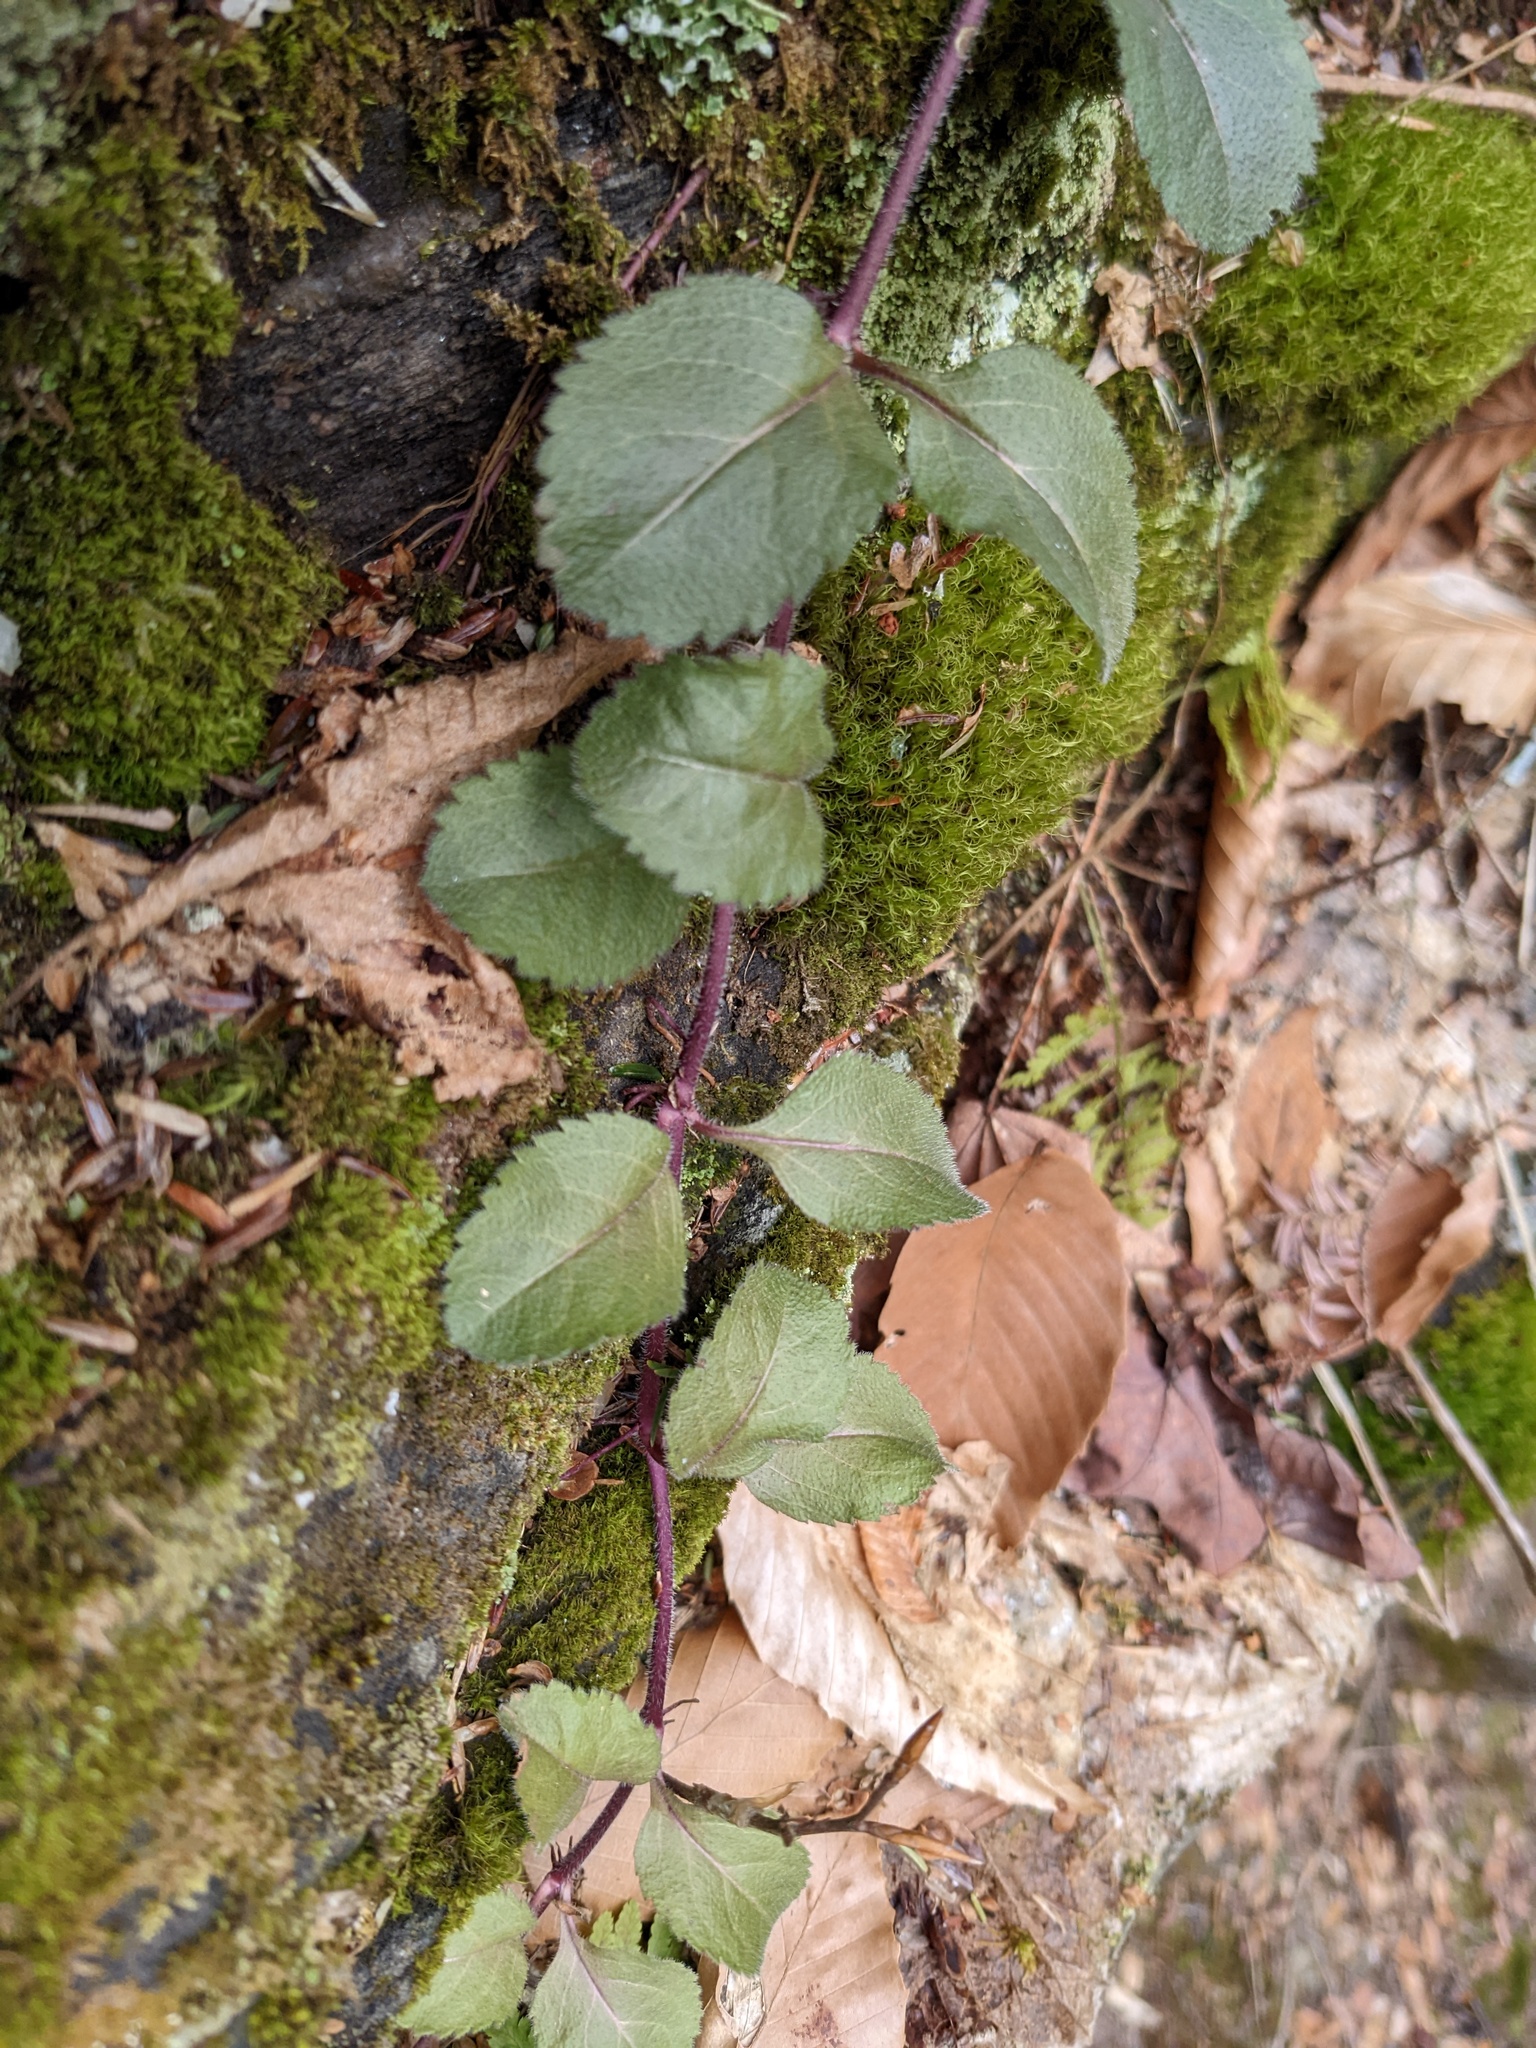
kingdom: Plantae
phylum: Tracheophyta
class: Magnoliopsida
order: Lamiales
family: Plantaginaceae
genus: Veronica
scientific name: Veronica officinalis
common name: Common speedwell
